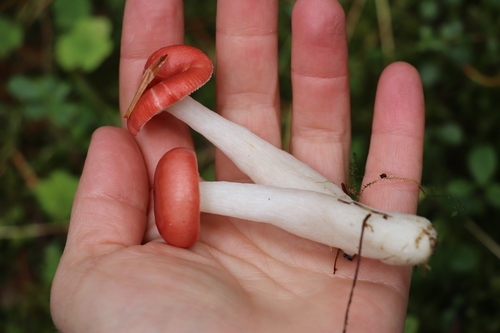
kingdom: Fungi
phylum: Basidiomycota
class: Agaricomycetes
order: Russulales
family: Russulaceae
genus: Russula
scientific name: Russula hydrophila
